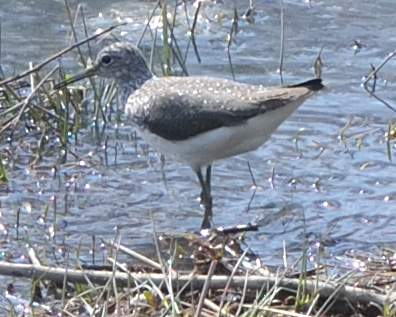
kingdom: Animalia
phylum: Chordata
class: Aves
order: Charadriiformes
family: Scolopacidae
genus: Tringa
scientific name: Tringa ochropus
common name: Green sandpiper
